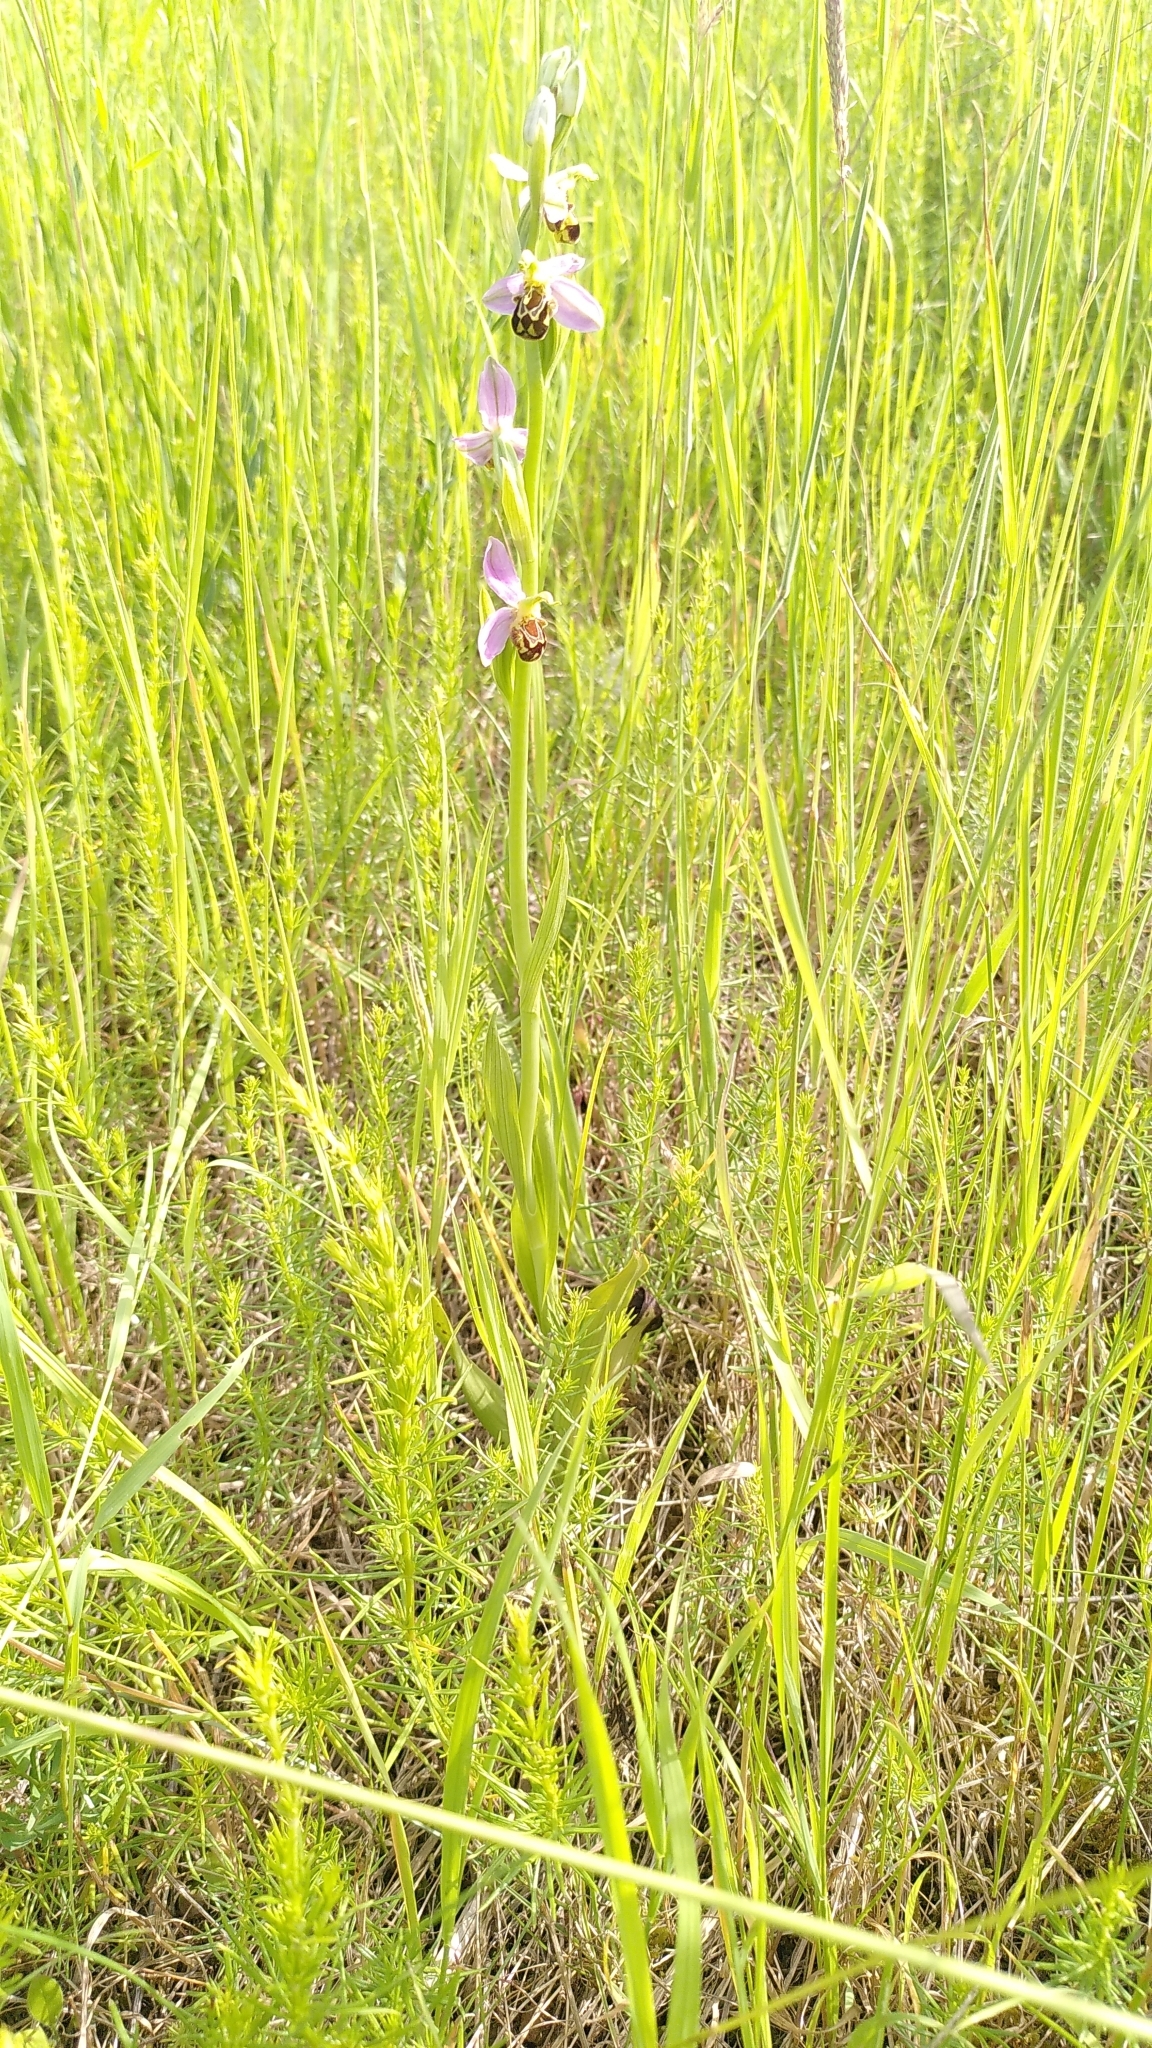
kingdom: Plantae
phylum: Tracheophyta
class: Liliopsida
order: Asparagales
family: Orchidaceae
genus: Ophrys
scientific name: Ophrys apifera
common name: Bee orchid
